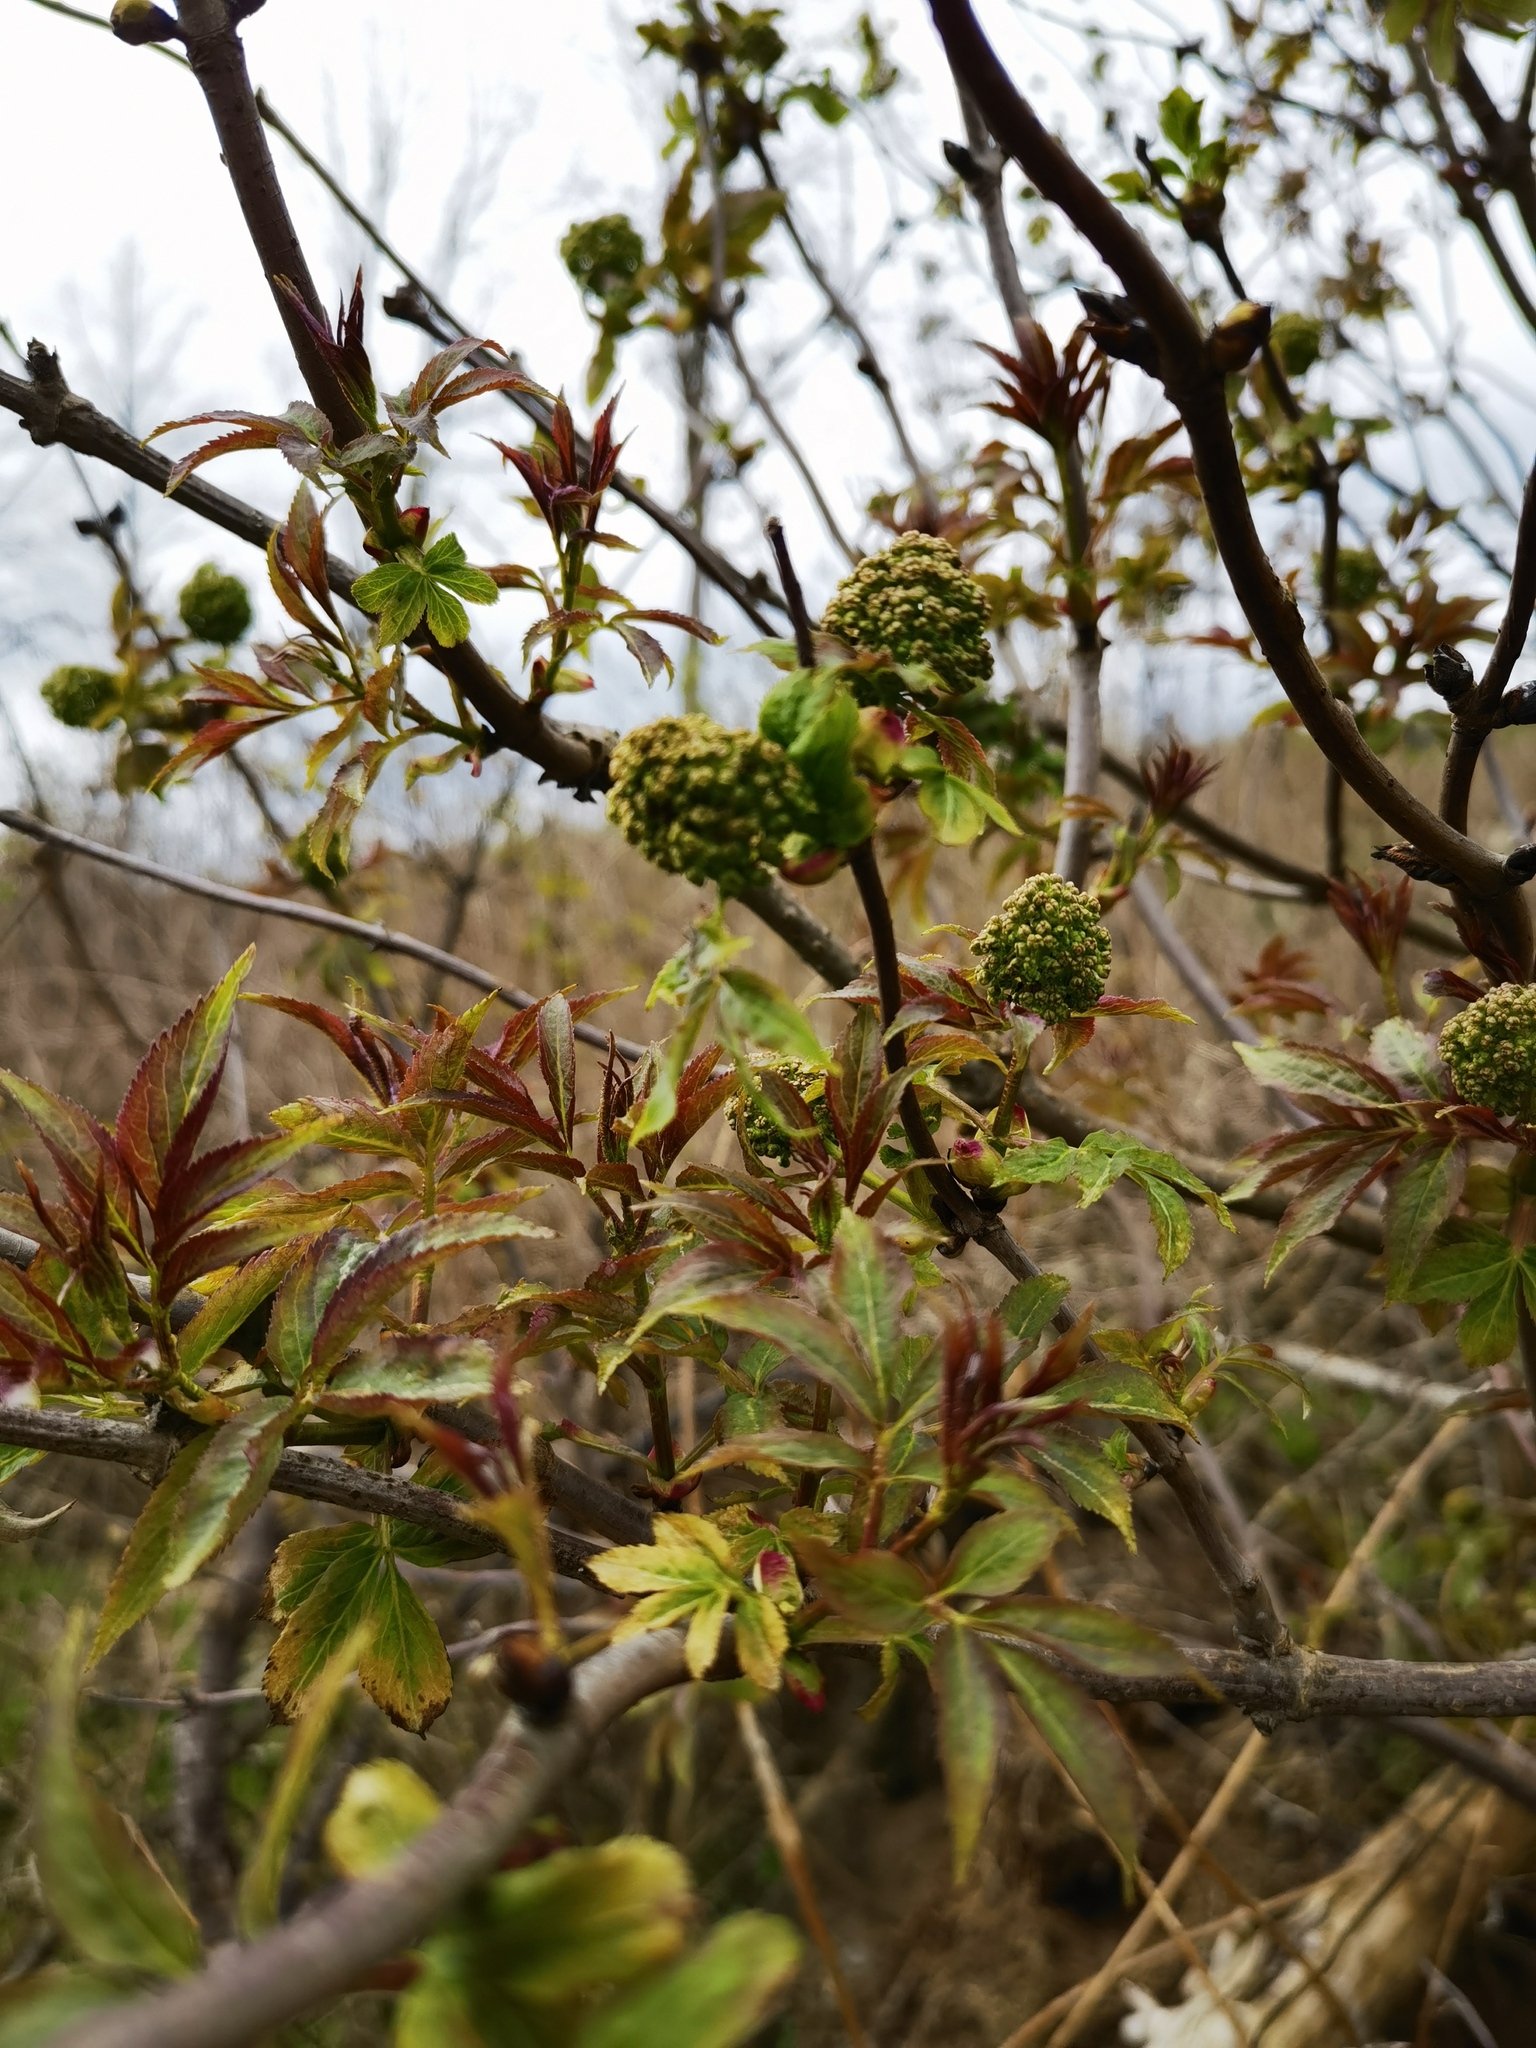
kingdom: Plantae
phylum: Tracheophyta
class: Magnoliopsida
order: Dipsacales
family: Viburnaceae
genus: Sambucus
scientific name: Sambucus racemosa
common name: Red-berried elder
